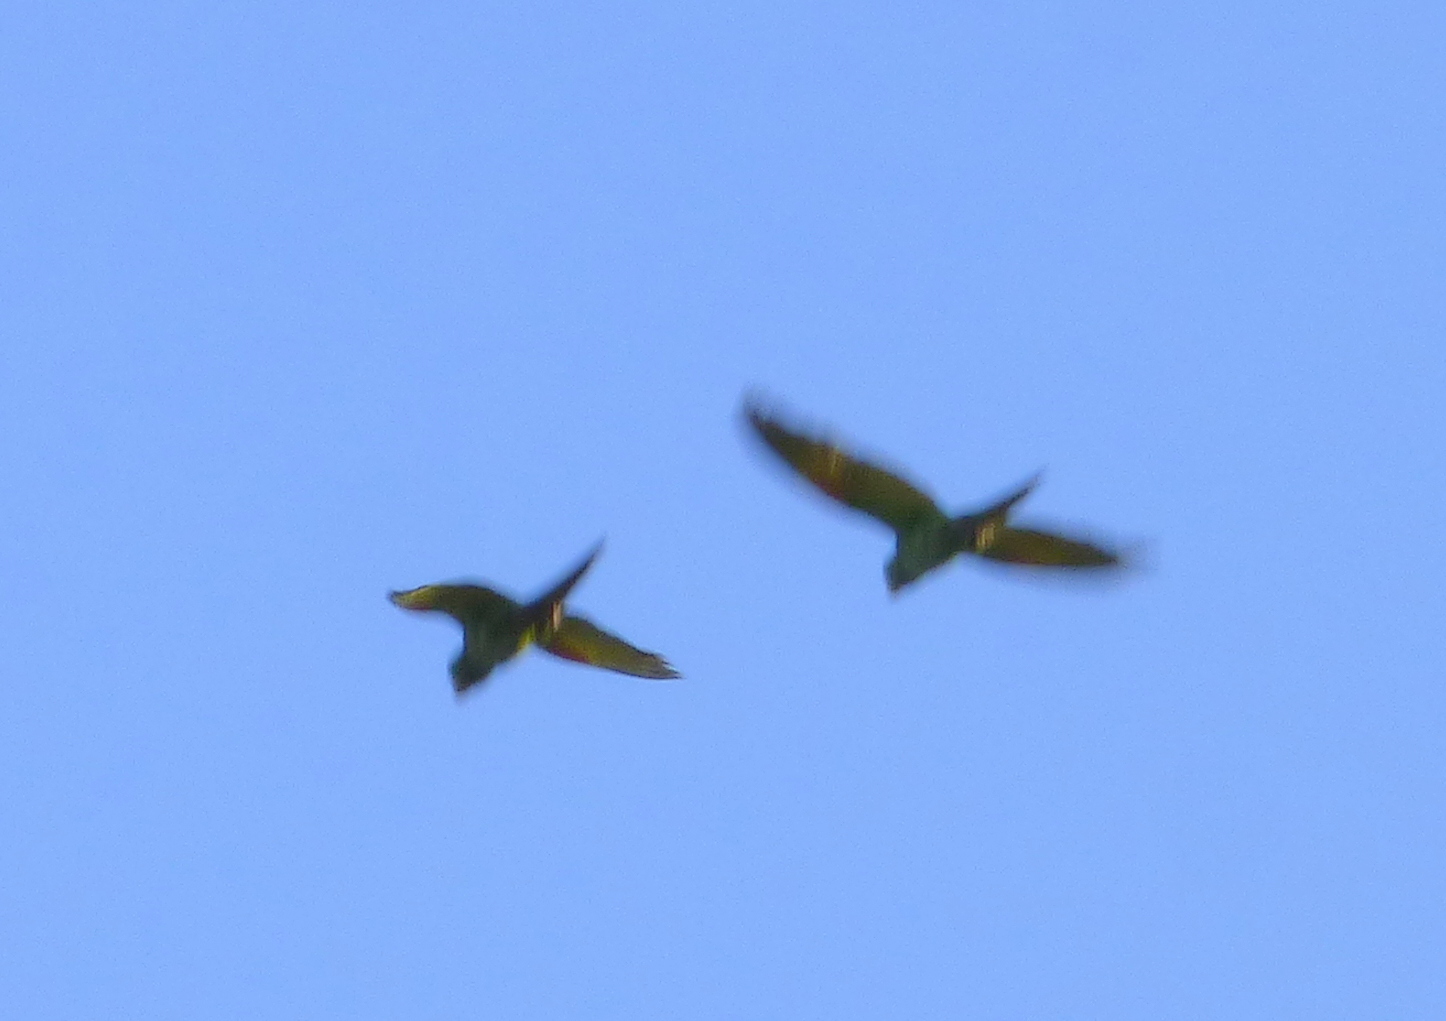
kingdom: Animalia
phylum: Chordata
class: Aves
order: Psittaciformes
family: Psittacidae
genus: Aratinga
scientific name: Aratinga leucophthalma
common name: White-eyed parakeet
